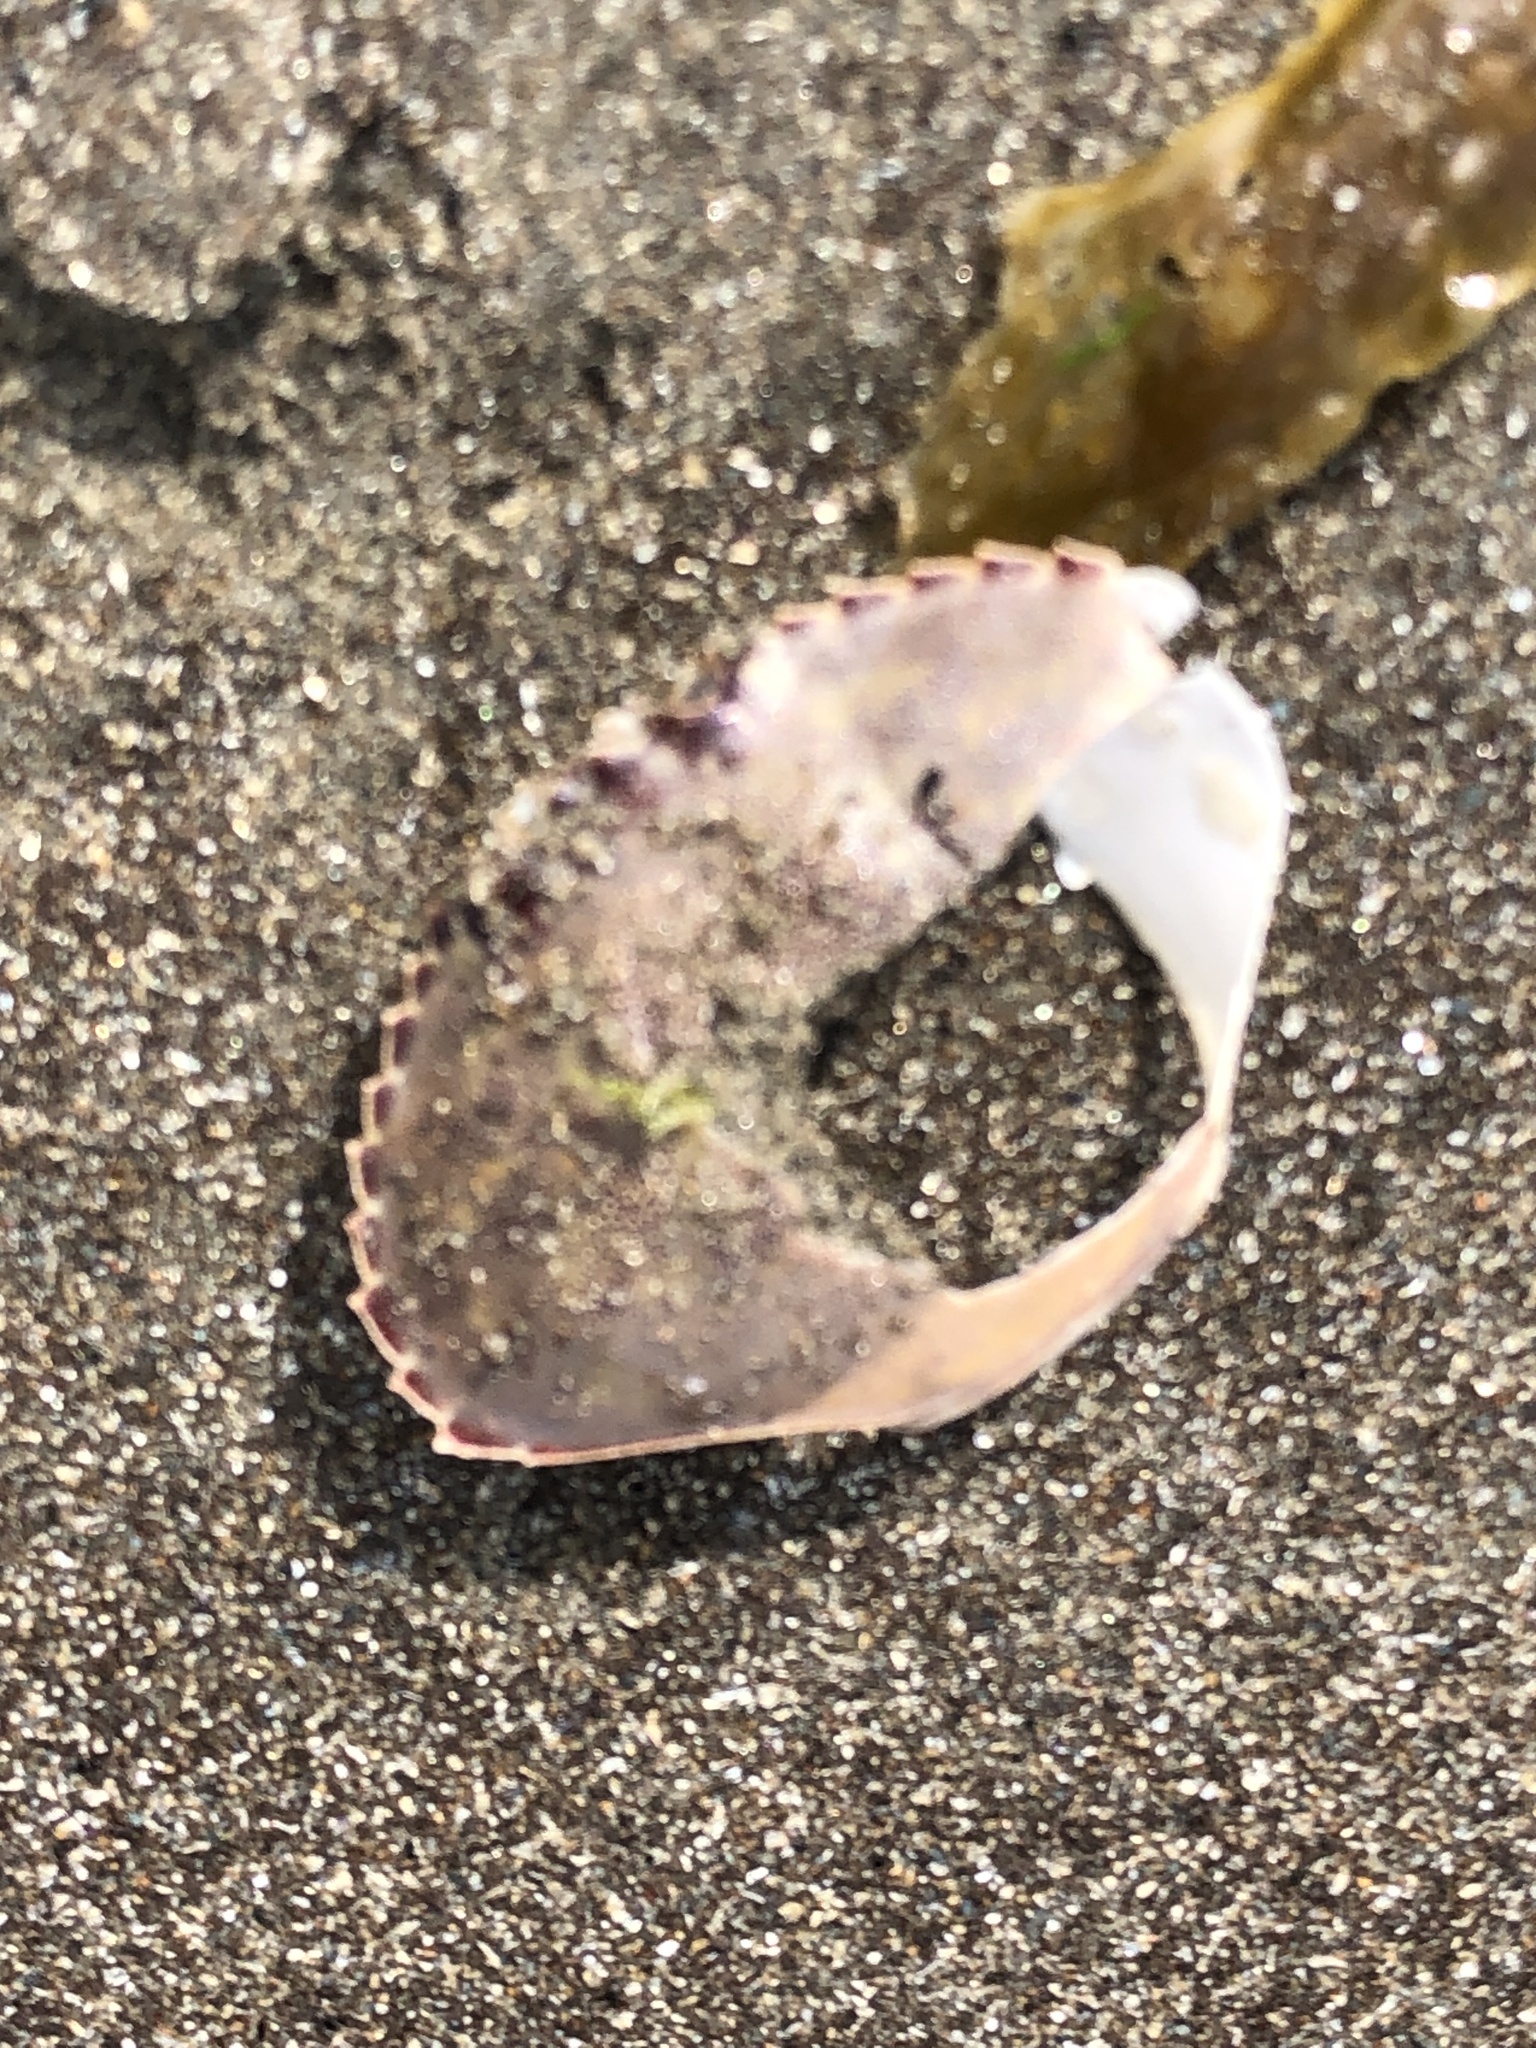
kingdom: Animalia
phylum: Arthropoda
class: Malacostraca
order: Decapoda
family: Cancridae
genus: Metacarcinus
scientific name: Metacarcinus gracilis
